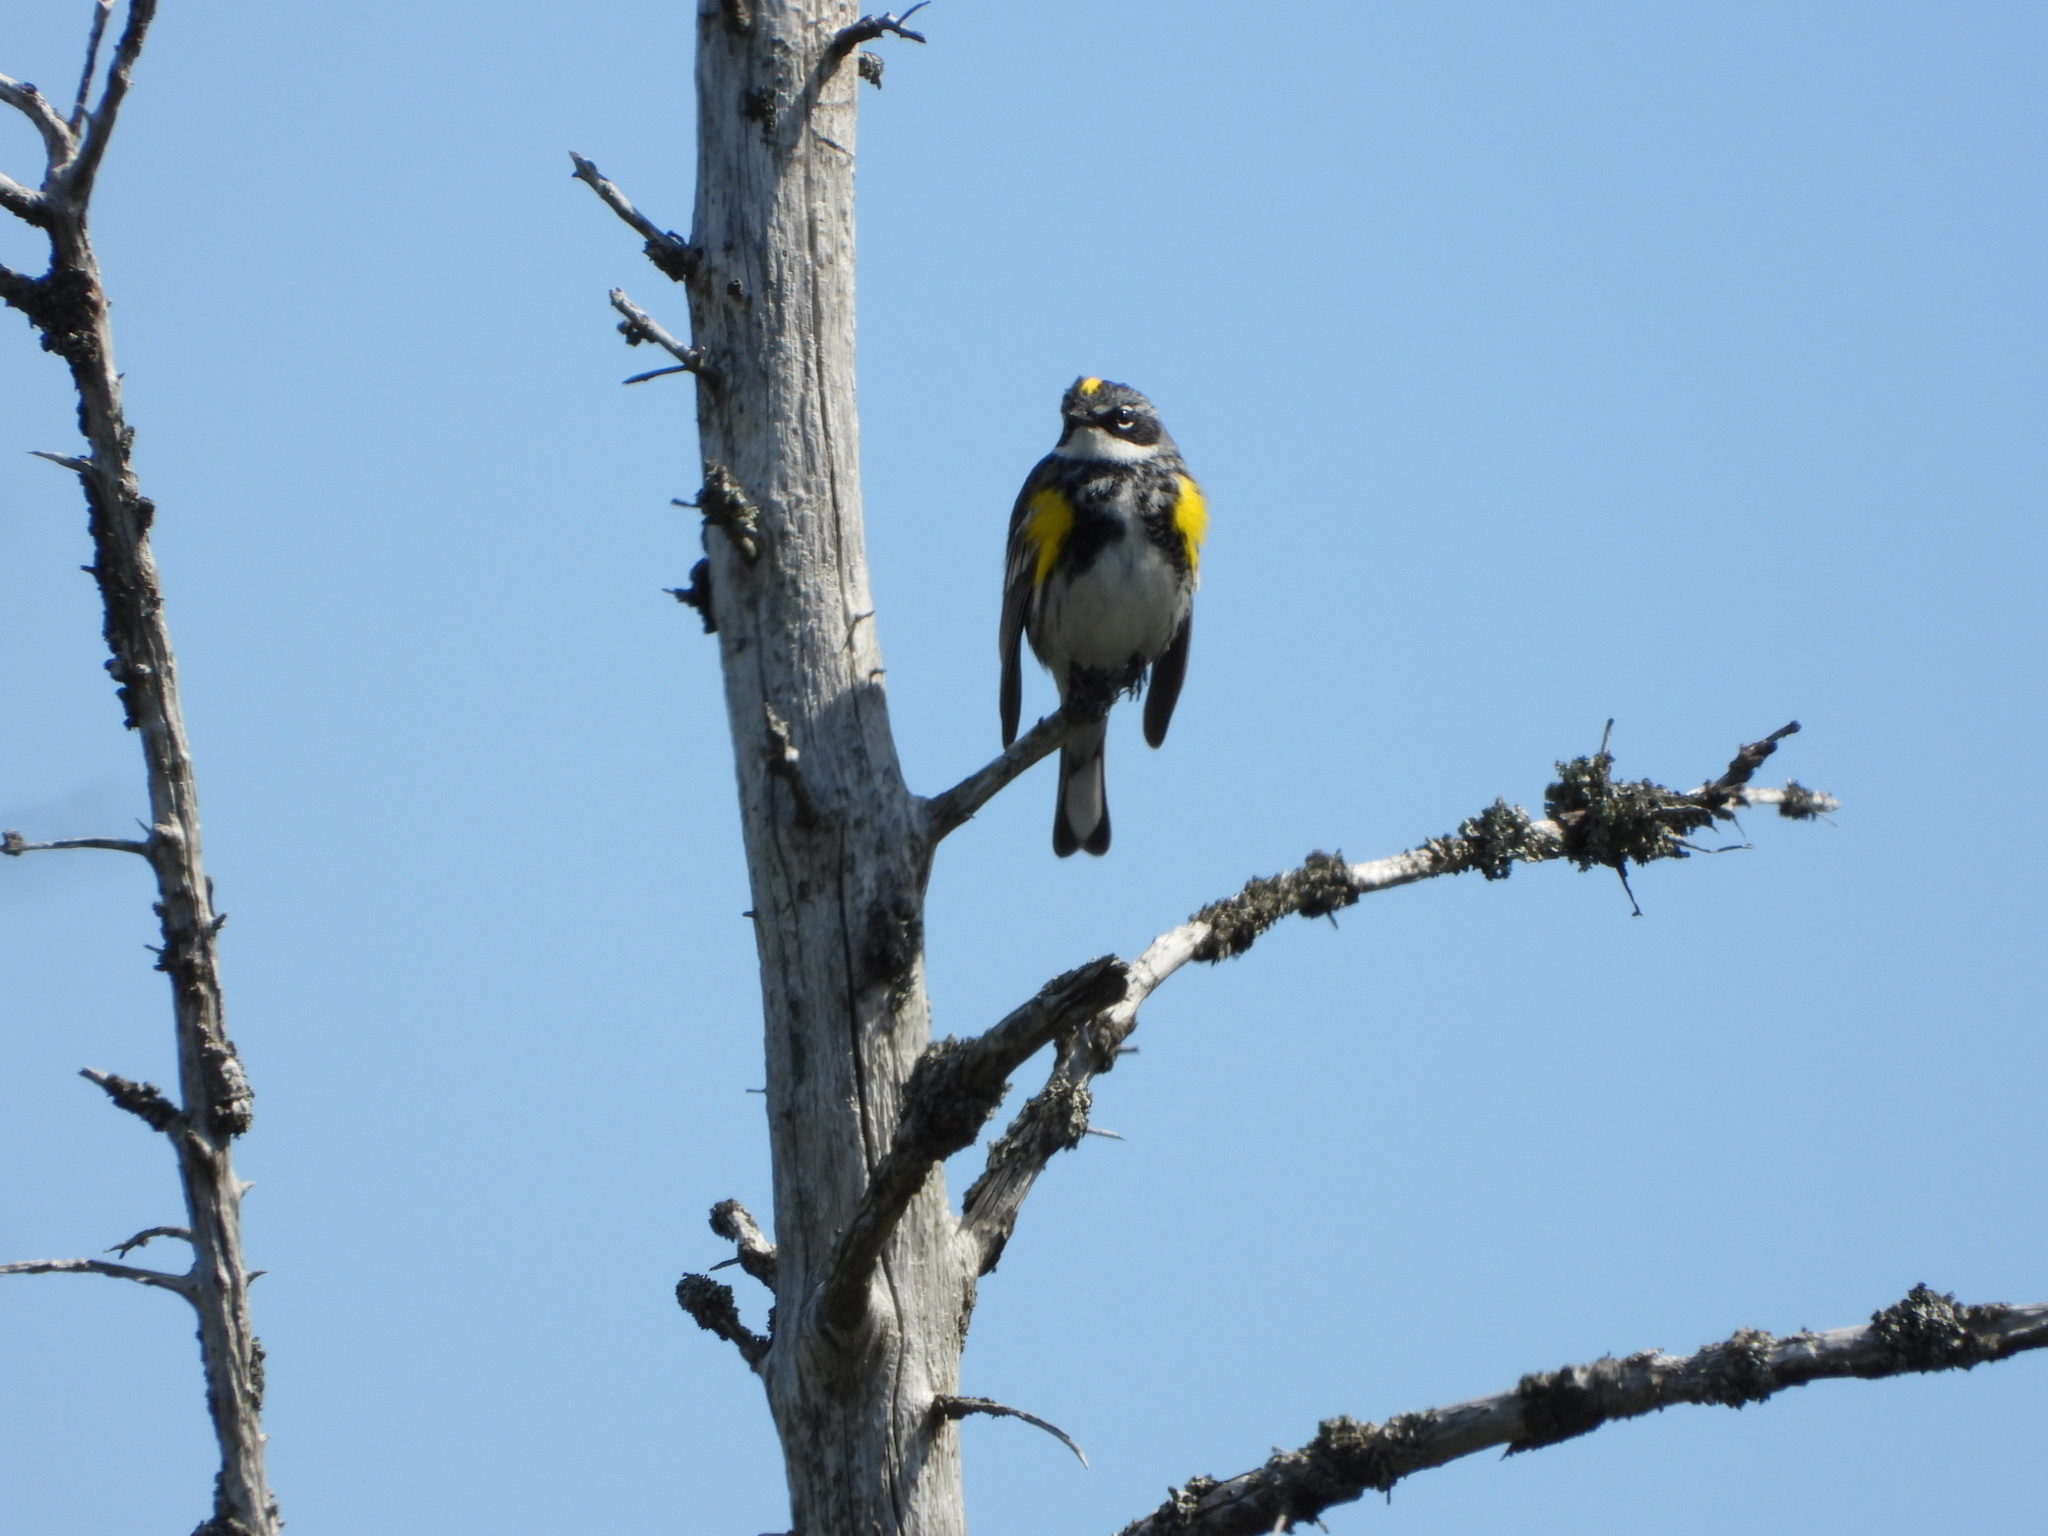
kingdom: Animalia
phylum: Chordata
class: Aves
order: Passeriformes
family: Parulidae
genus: Setophaga
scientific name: Setophaga coronata
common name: Myrtle warbler
